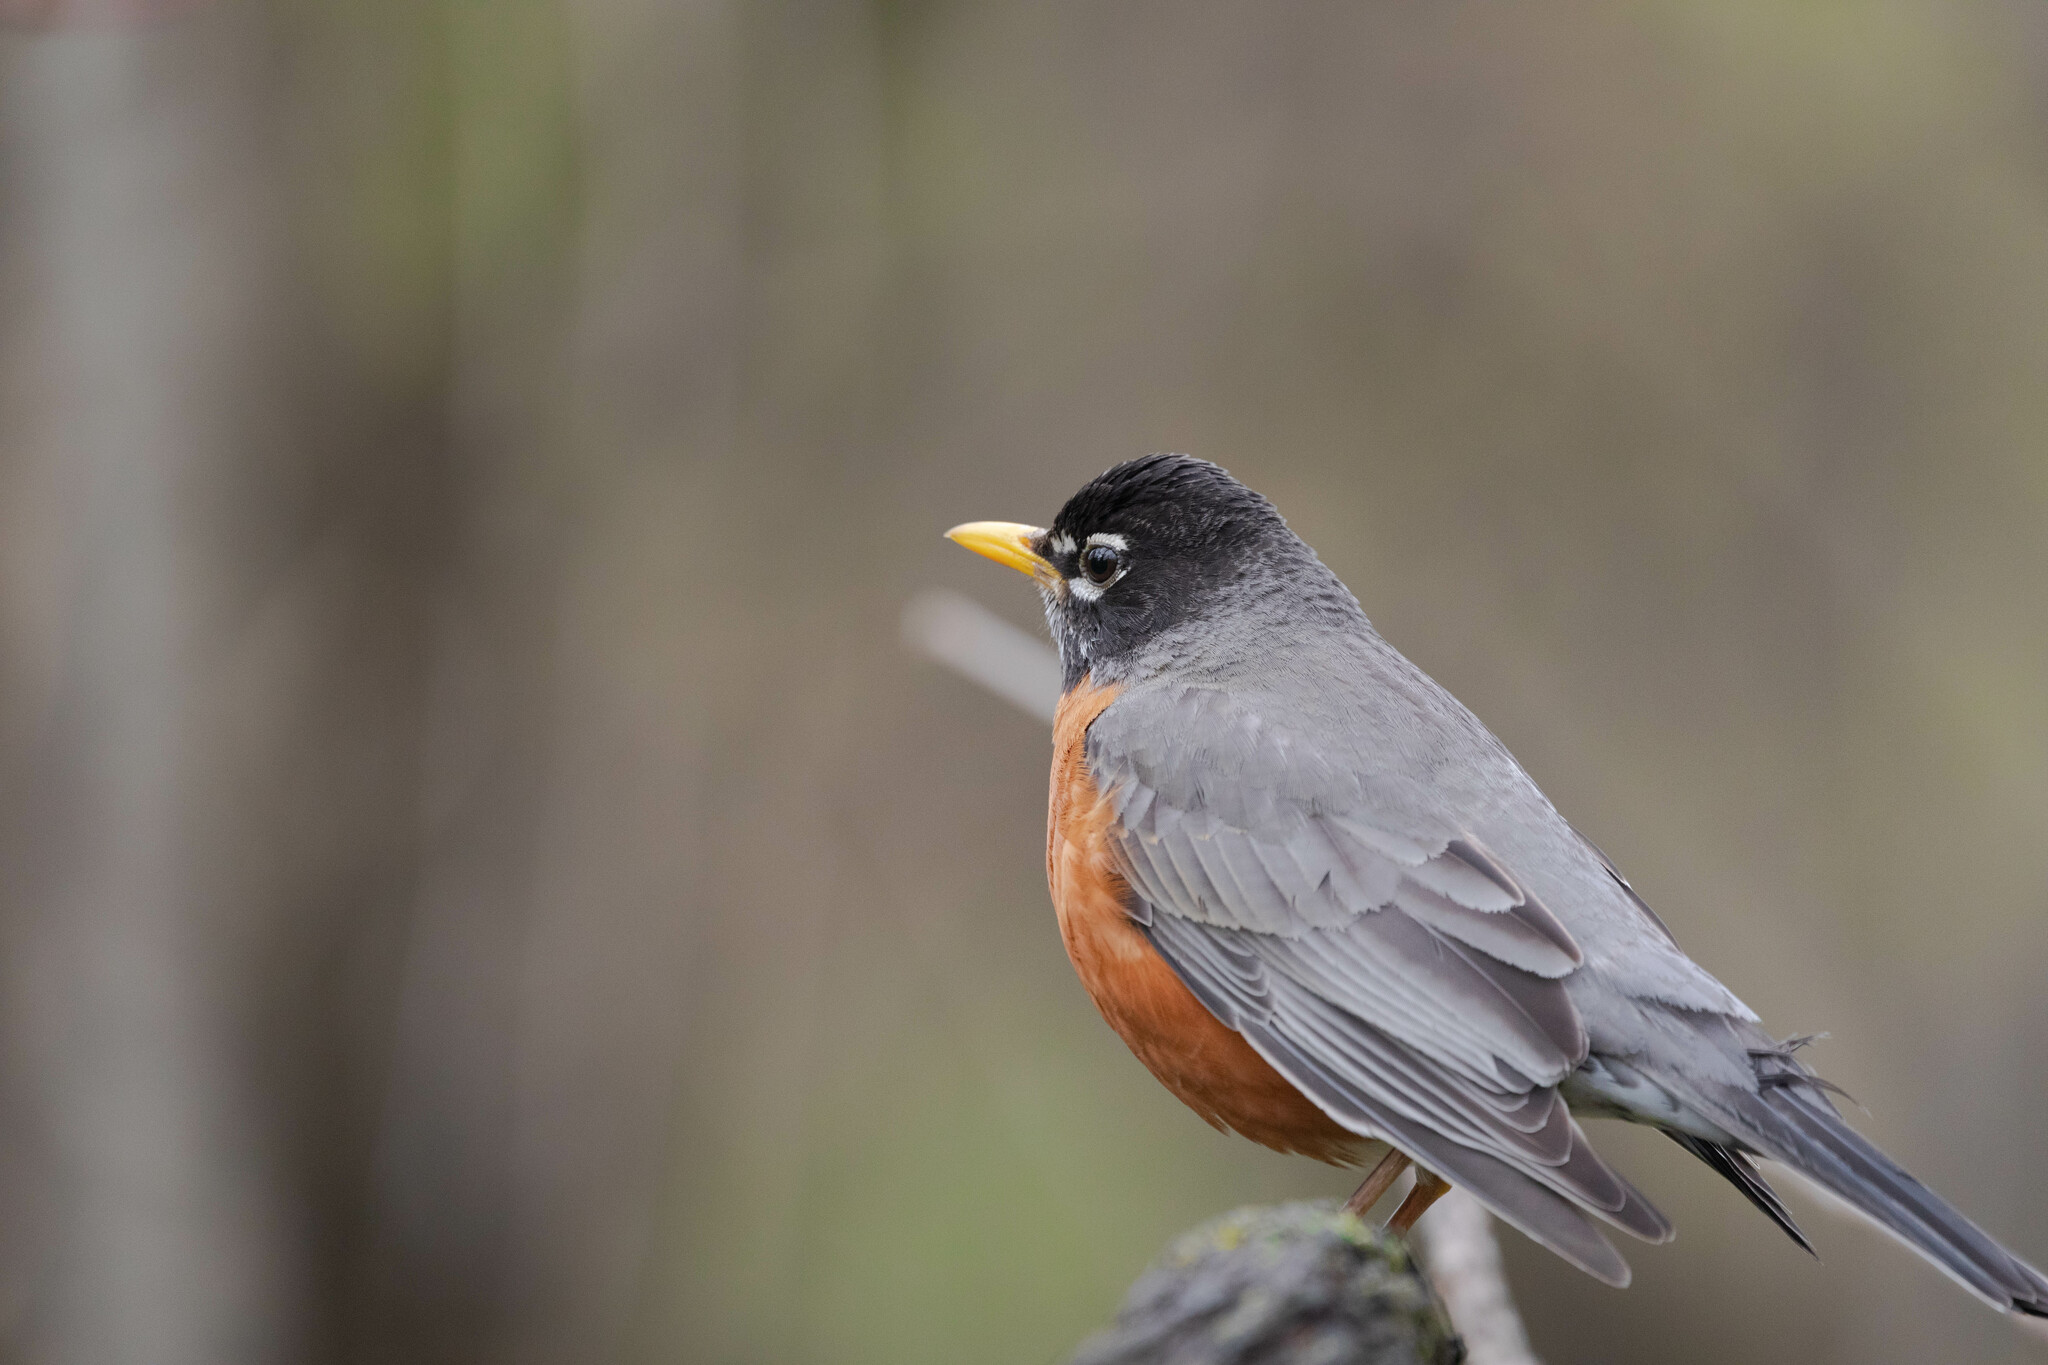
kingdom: Animalia
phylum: Chordata
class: Aves
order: Passeriformes
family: Turdidae
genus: Turdus
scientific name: Turdus migratorius
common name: American robin
